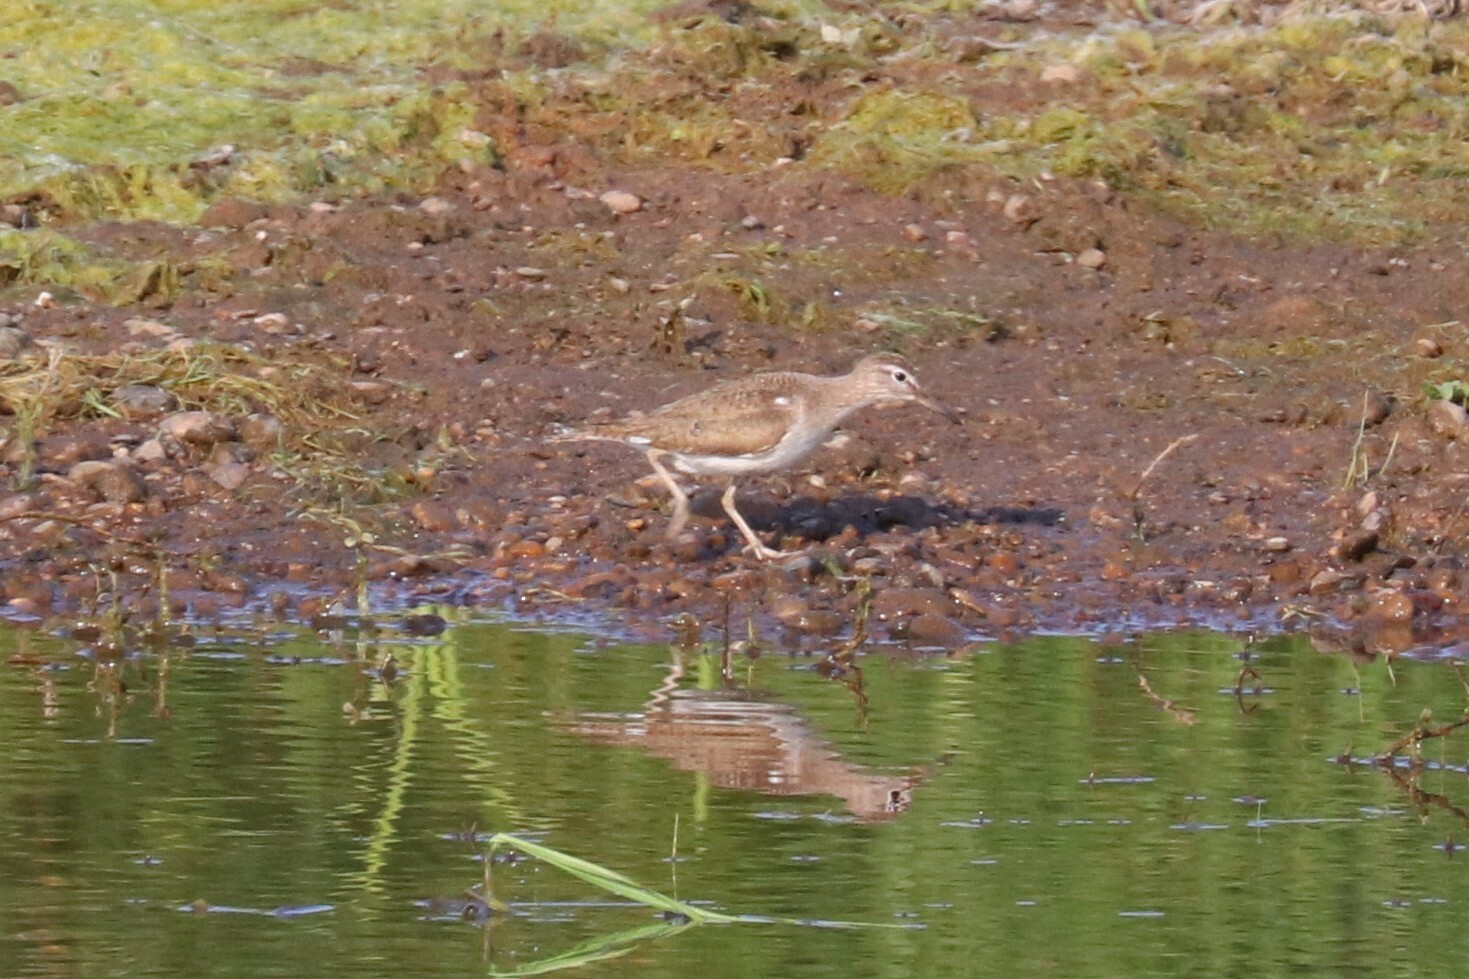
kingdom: Animalia
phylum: Chordata
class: Aves
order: Charadriiformes
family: Scolopacidae
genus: Actitis
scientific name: Actitis hypoleucos
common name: Common sandpiper
